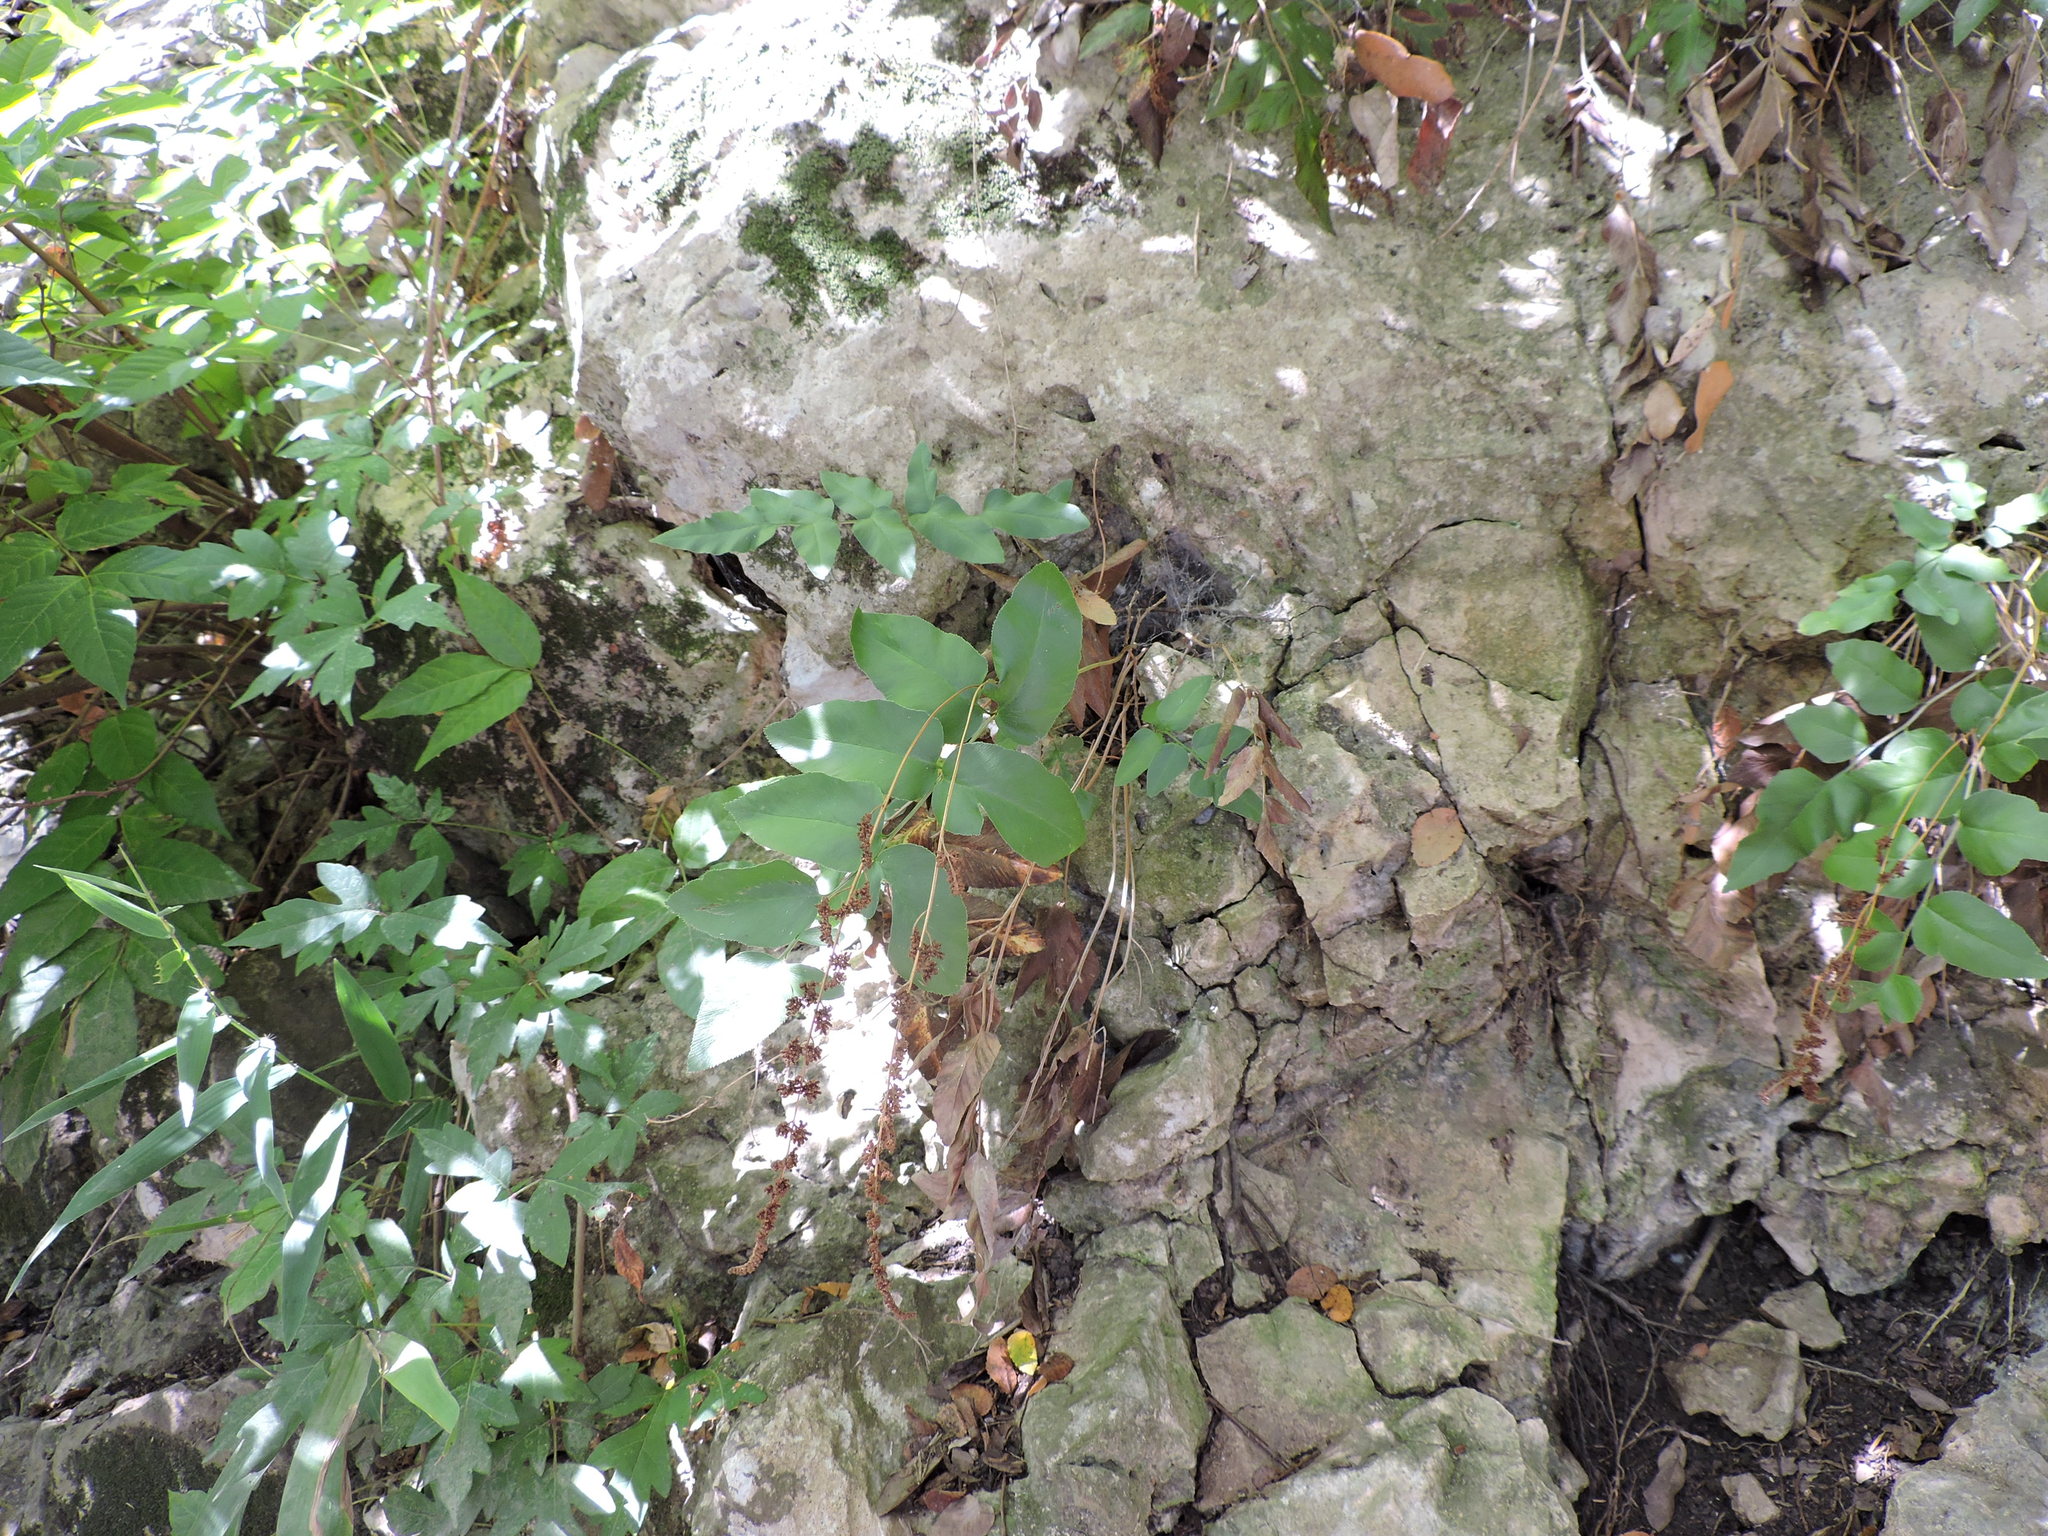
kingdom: Plantae
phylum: Tracheophyta
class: Polypodiopsida
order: Schizaeales
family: Anemiaceae
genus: Anemia
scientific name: Anemia mexicana
